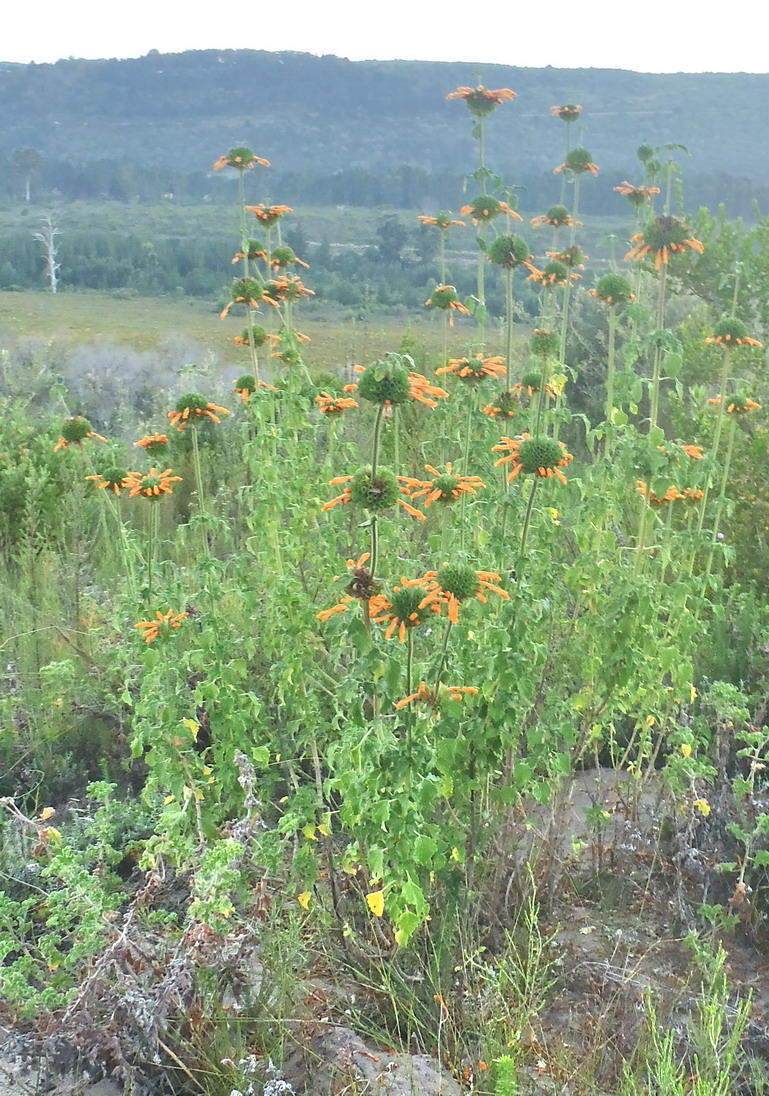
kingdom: Plantae
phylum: Tracheophyta
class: Magnoliopsida
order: Lamiales
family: Lamiaceae
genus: Leonotis
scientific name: Leonotis ocymifolia
